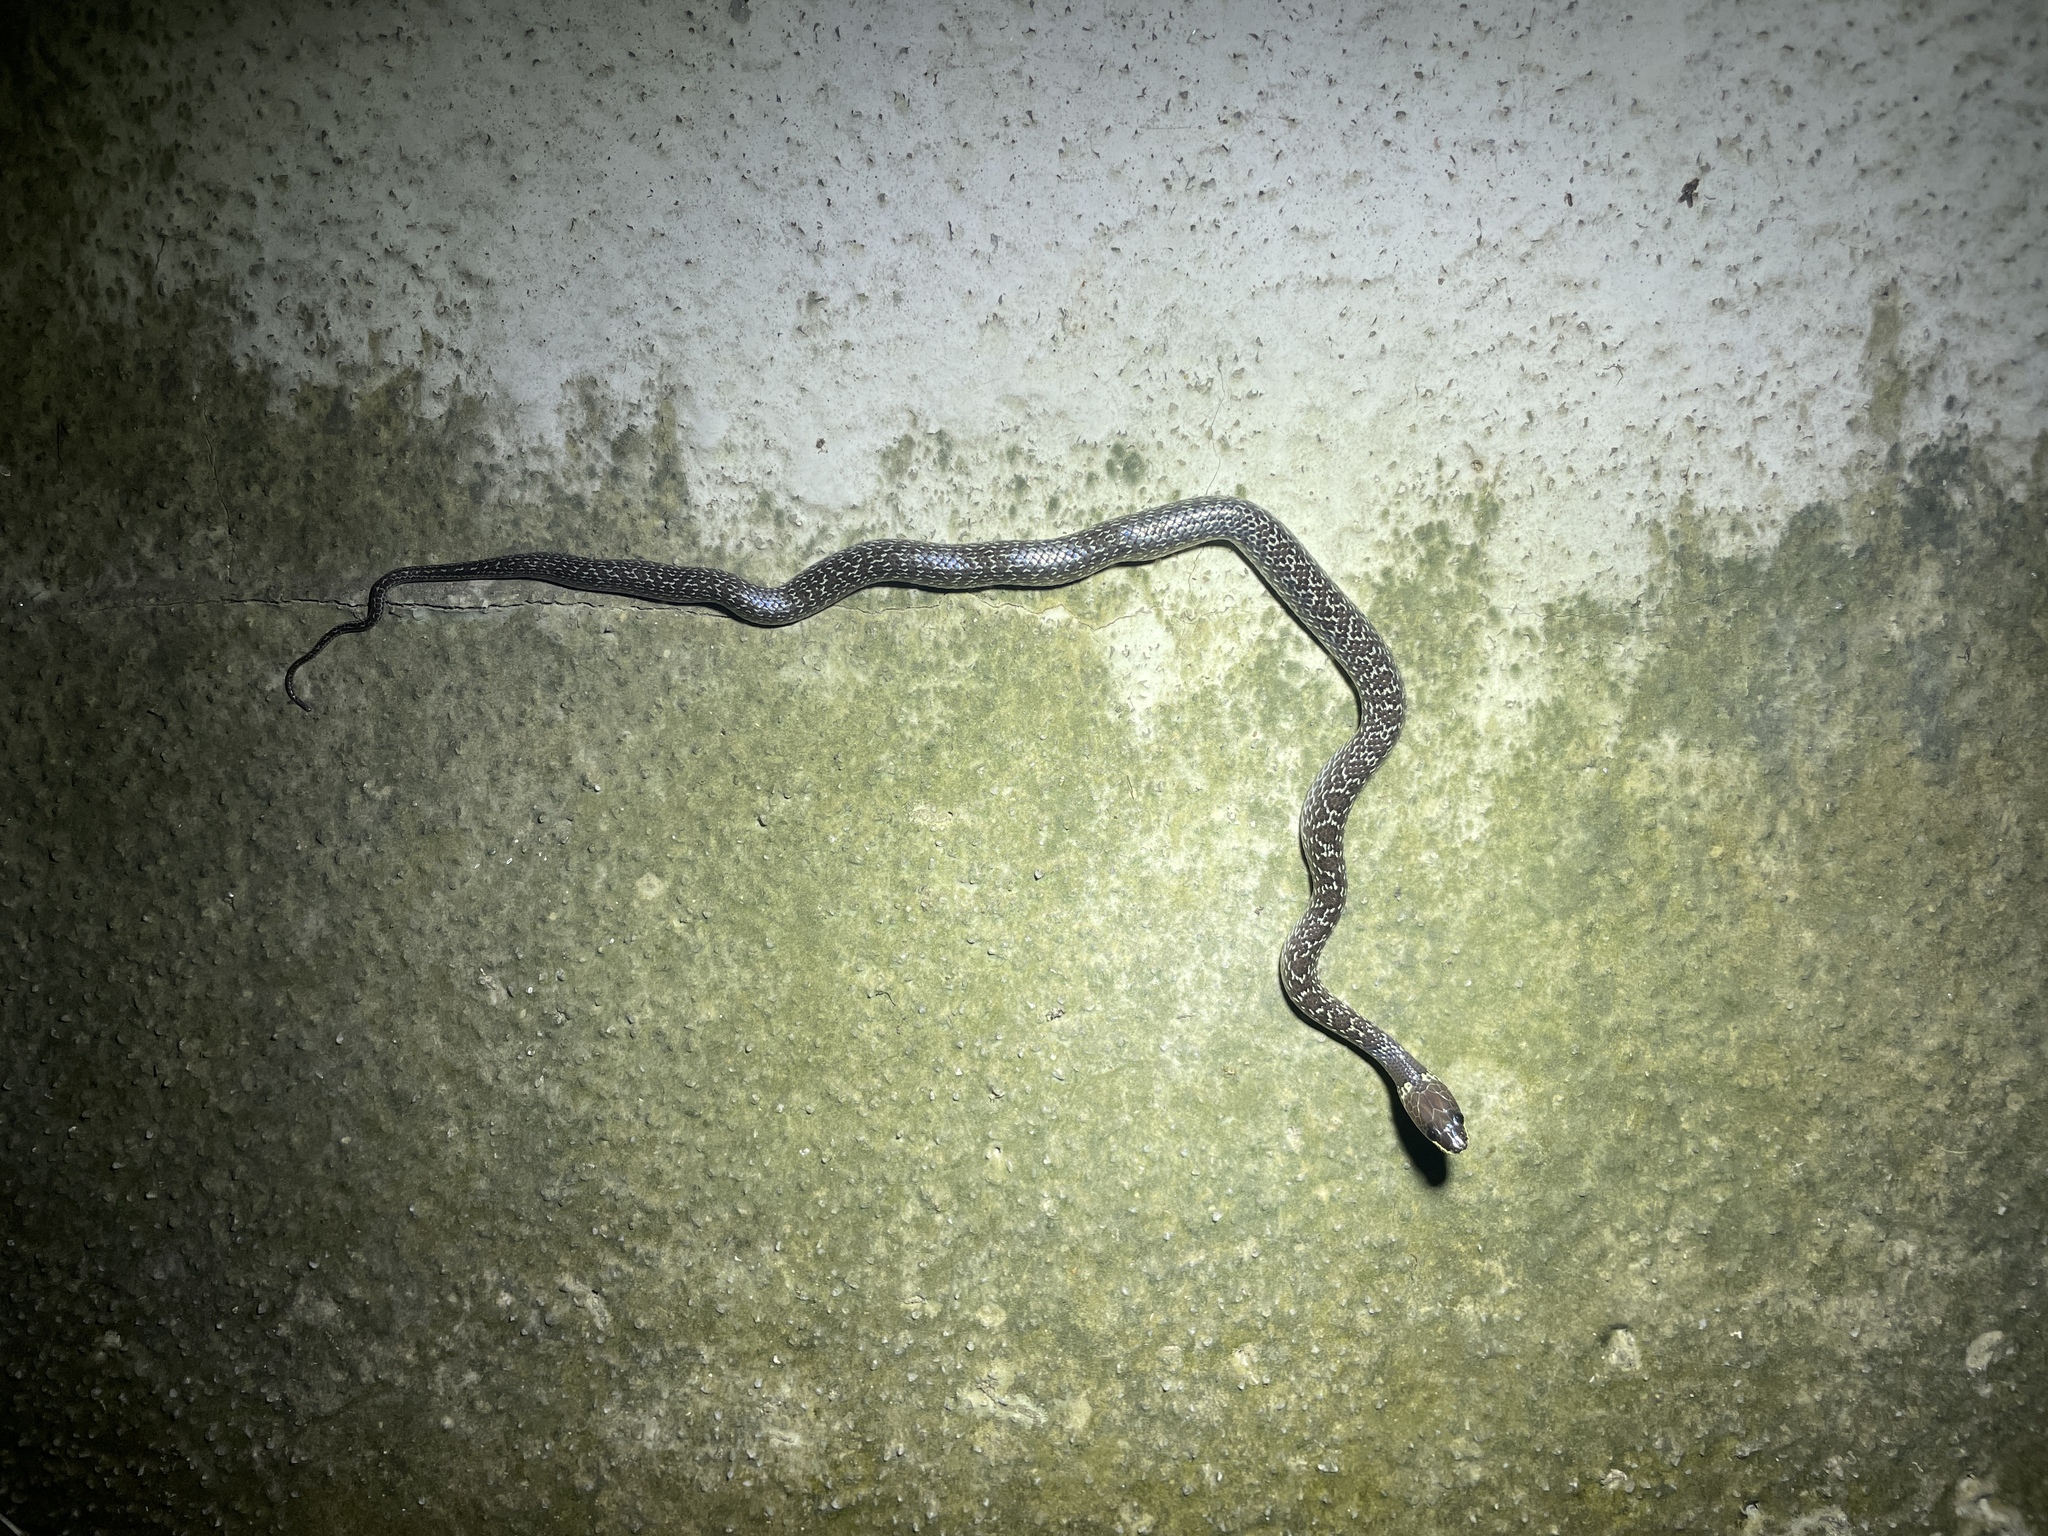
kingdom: Animalia
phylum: Chordata
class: Squamata
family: Colubridae
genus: Lycodon
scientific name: Lycodon capucinus
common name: Common wold snake/house snake
